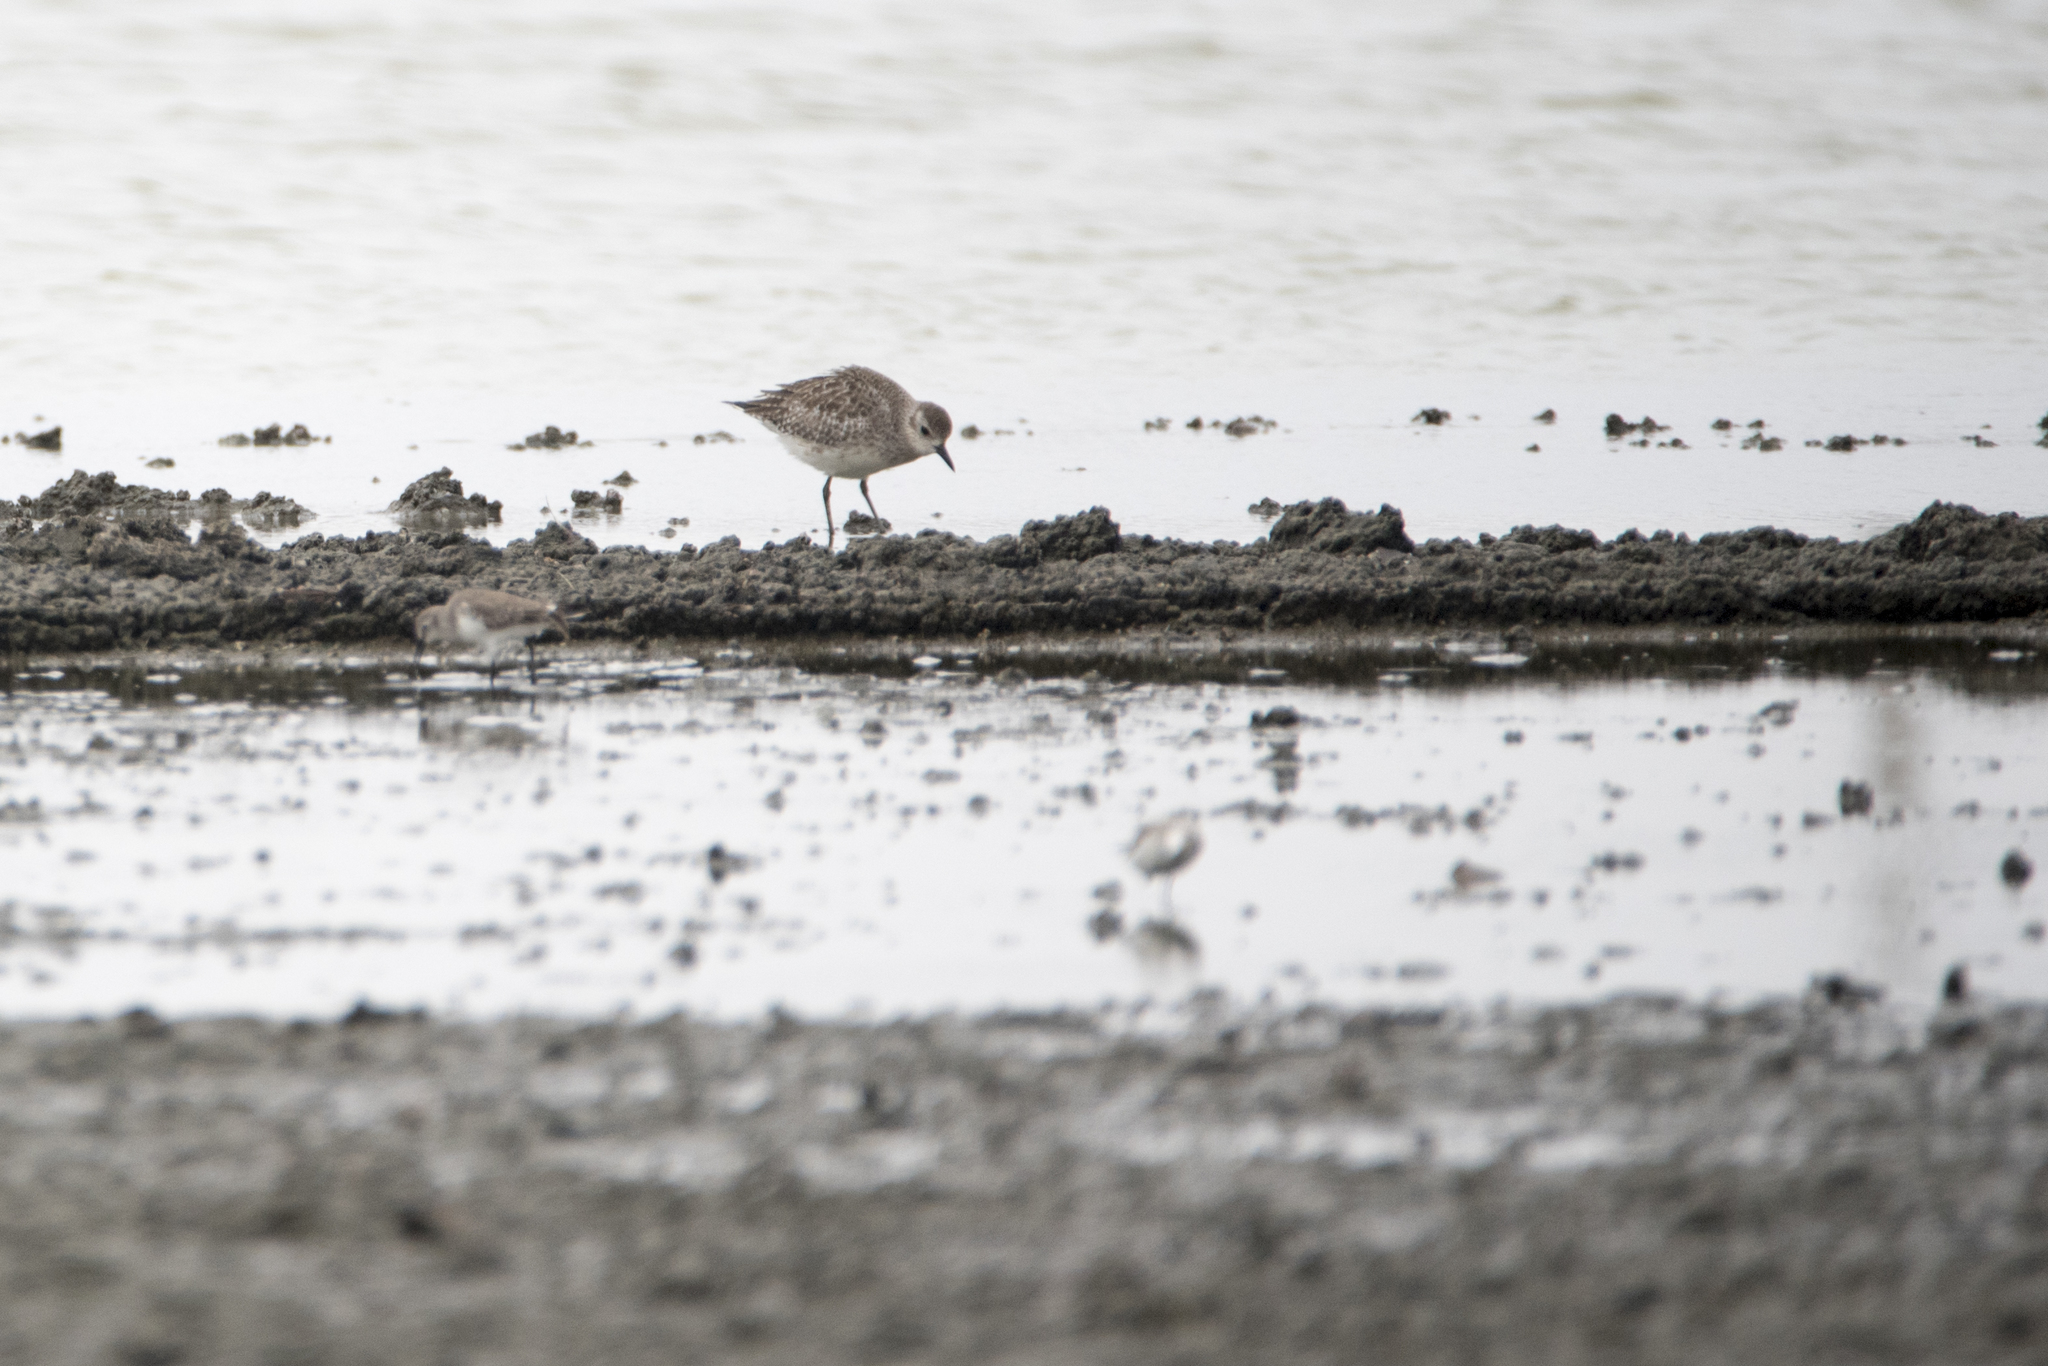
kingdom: Animalia
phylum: Chordata
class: Aves
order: Charadriiformes
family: Charadriidae
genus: Pluvialis
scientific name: Pluvialis squatarola
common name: Grey plover
